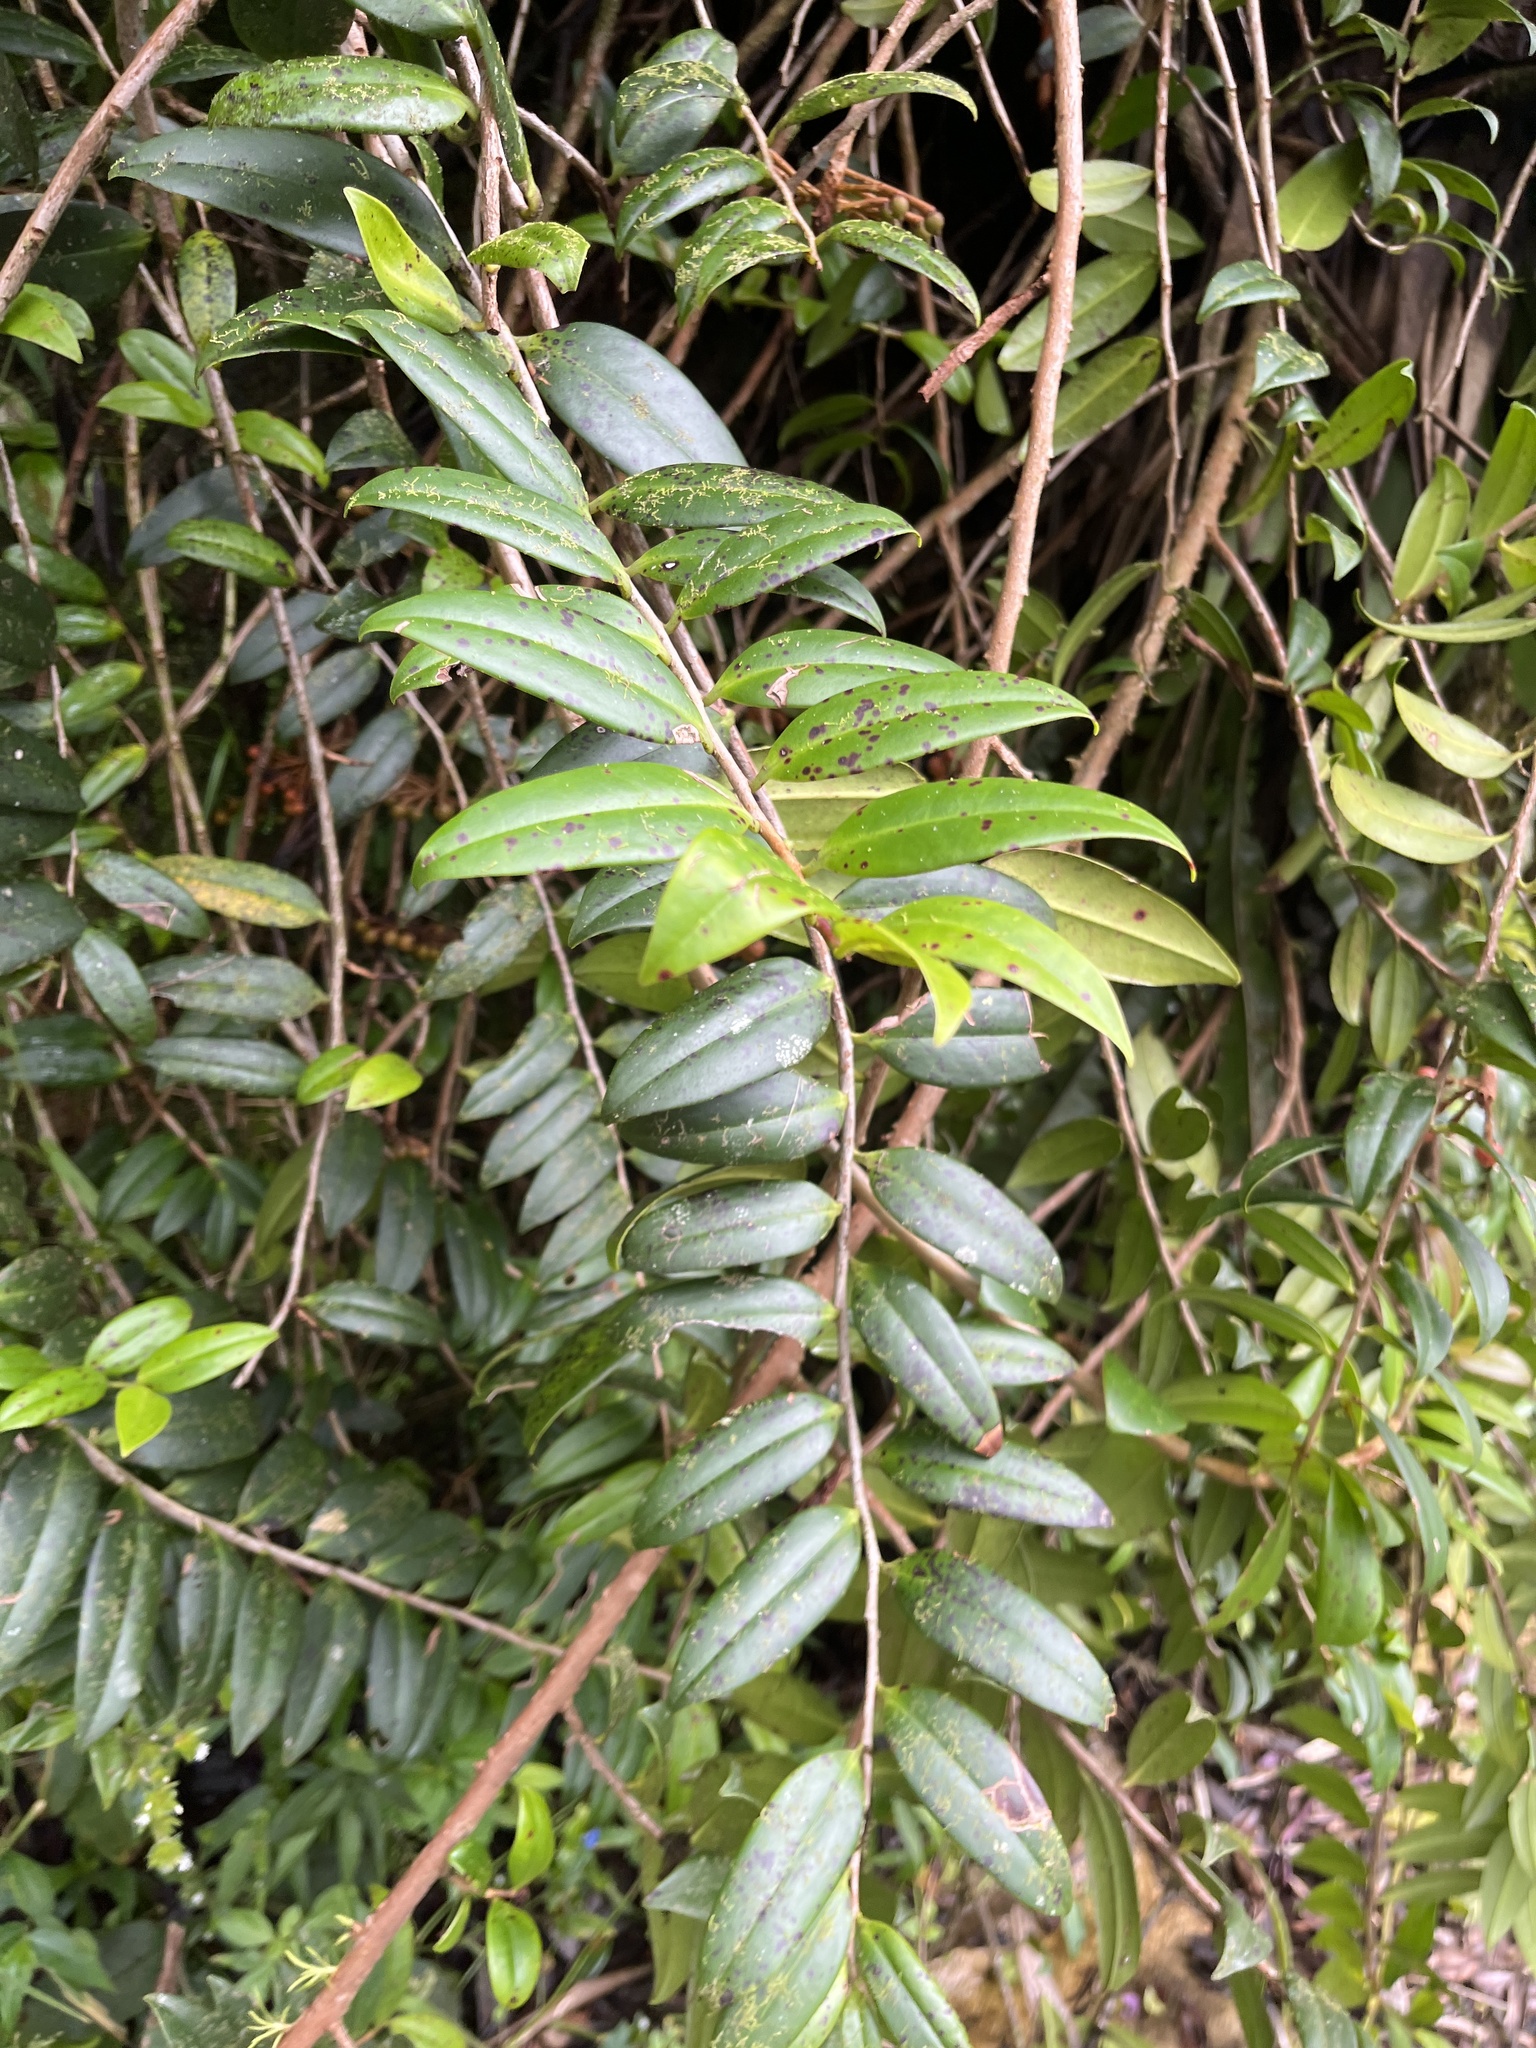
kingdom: Plantae
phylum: Tracheophyta
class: Magnoliopsida
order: Ericales
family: Marcgraviaceae
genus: Marcgravia
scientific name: Marcgravia rectiflora
